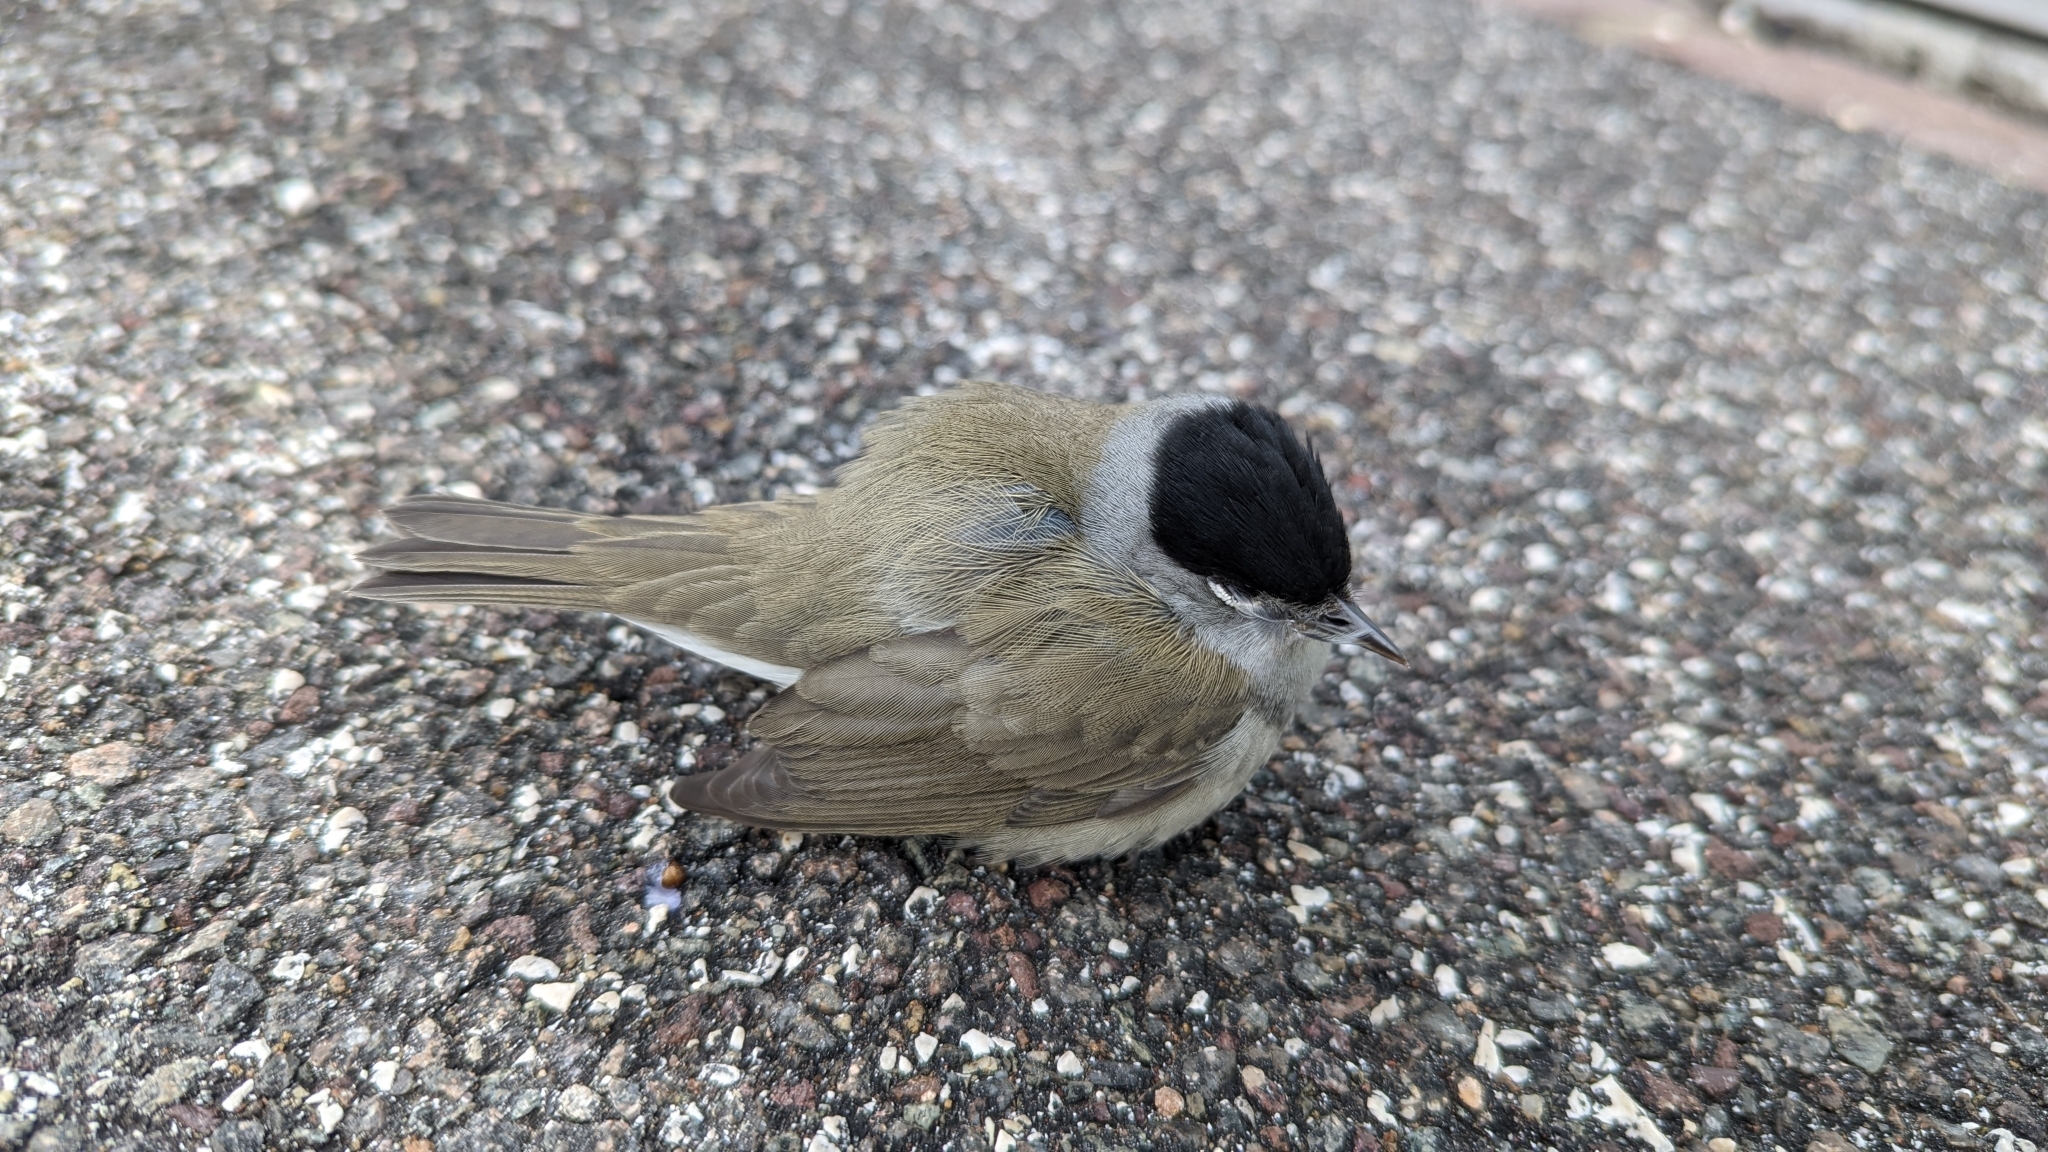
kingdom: Animalia
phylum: Chordata
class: Aves
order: Passeriformes
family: Sylviidae
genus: Sylvia
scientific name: Sylvia atricapilla
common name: Eurasian blackcap
